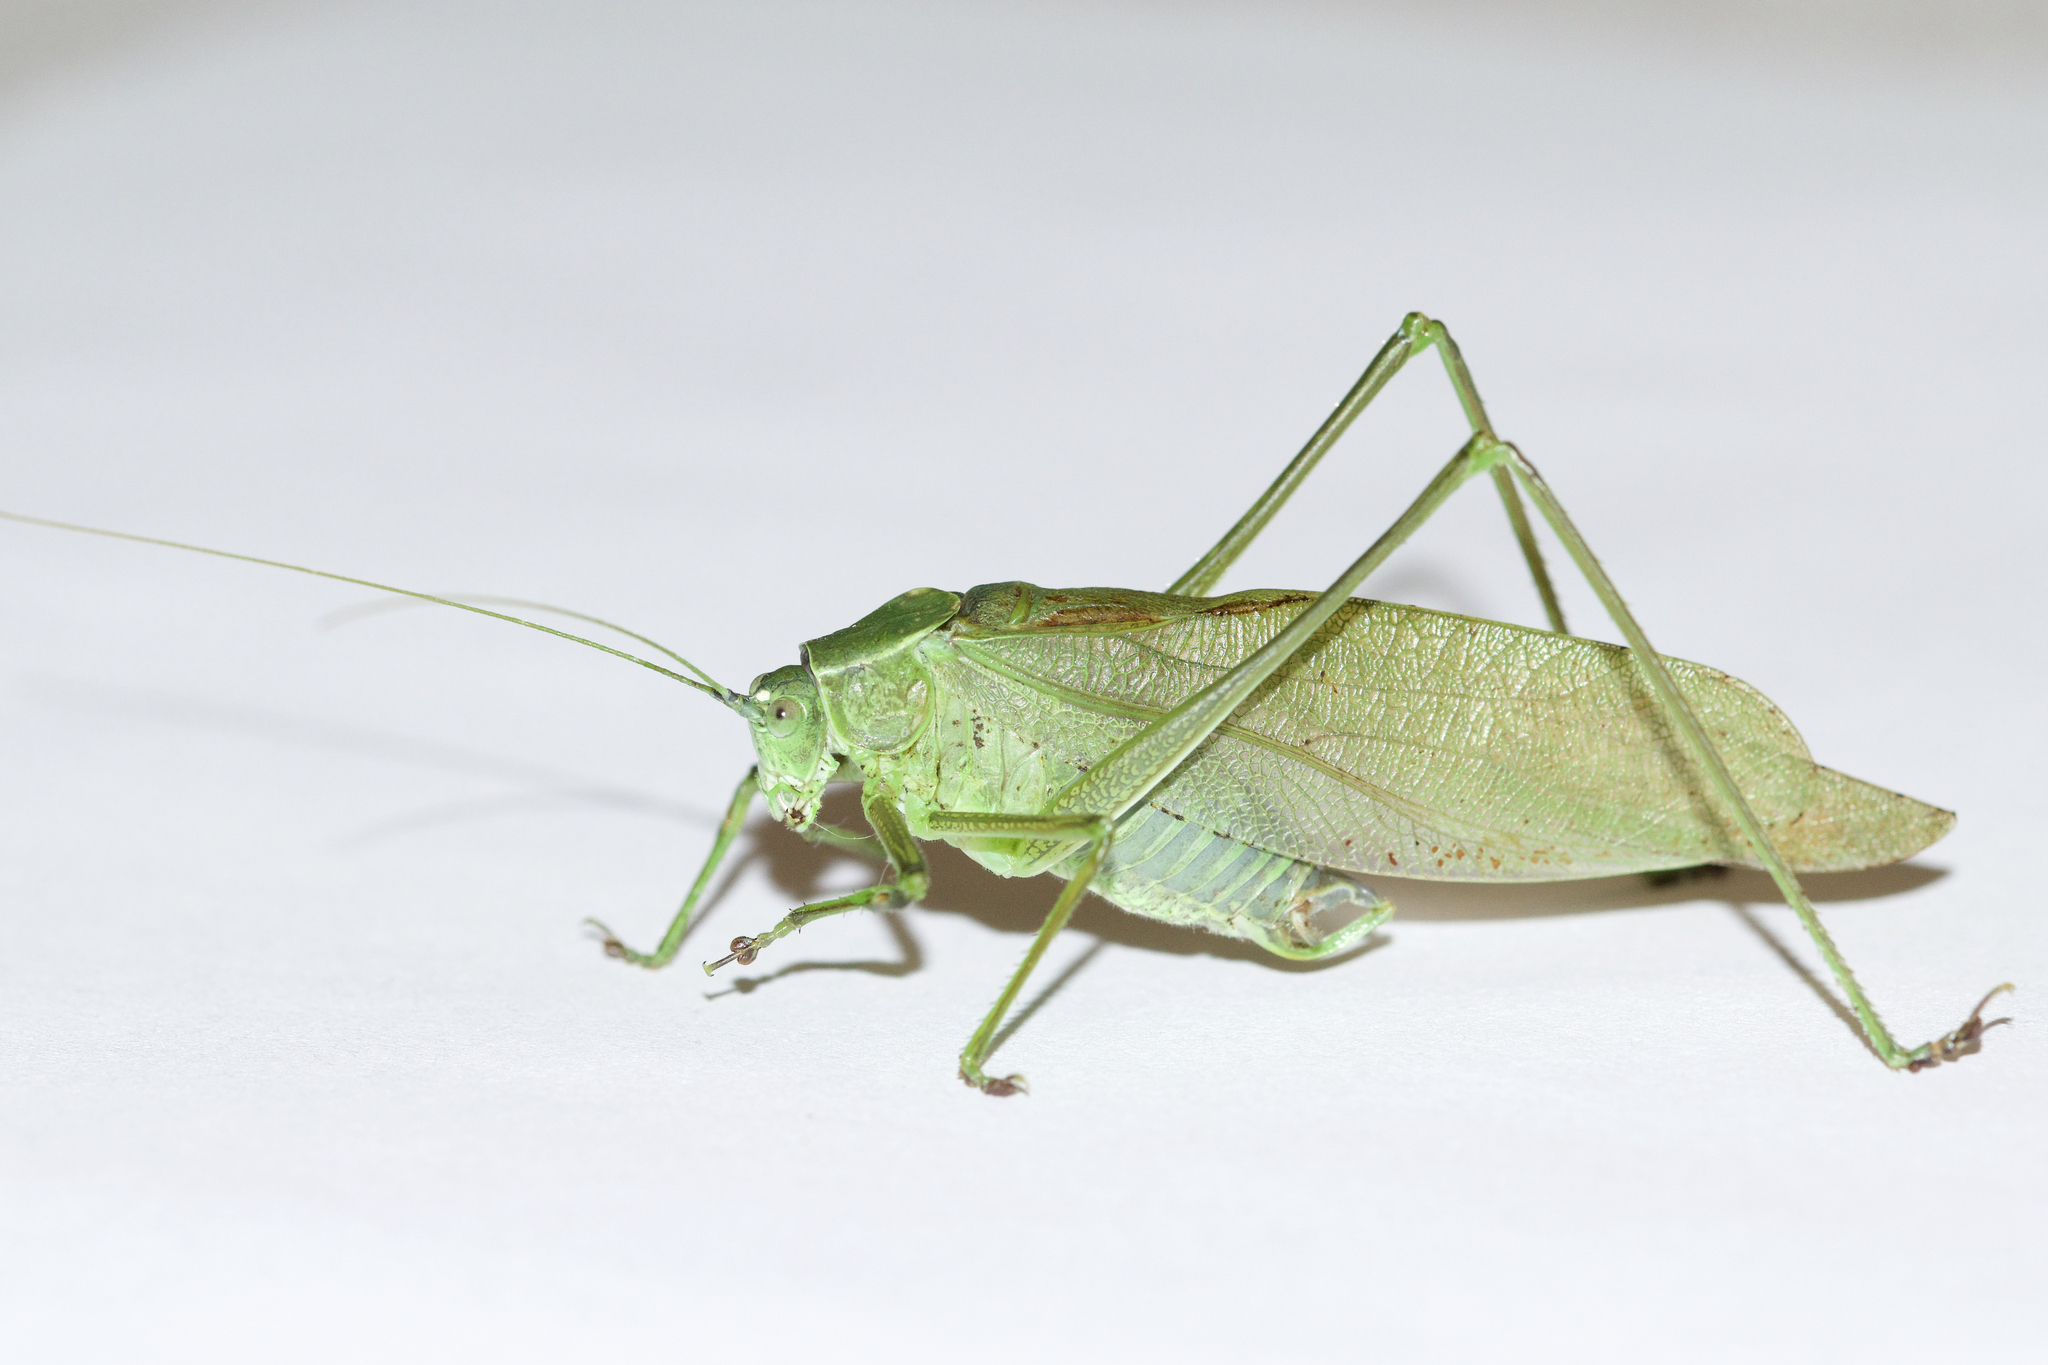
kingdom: Animalia
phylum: Arthropoda
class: Insecta
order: Orthoptera
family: Tettigoniidae
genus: Scudderia
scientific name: Scudderia pistillata
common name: Broad-winged bush-katydid
